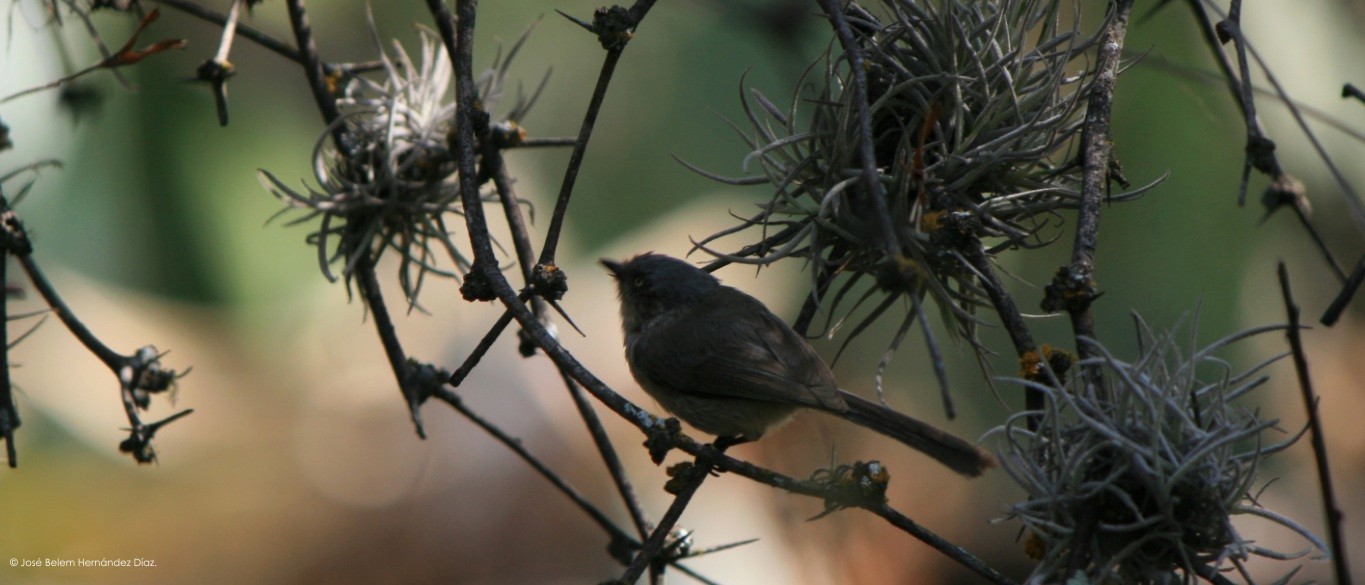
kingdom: Animalia
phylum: Chordata
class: Aves
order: Passeriformes
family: Aegithalidae
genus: Psaltriparus
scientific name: Psaltriparus minimus
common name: American bushtit
